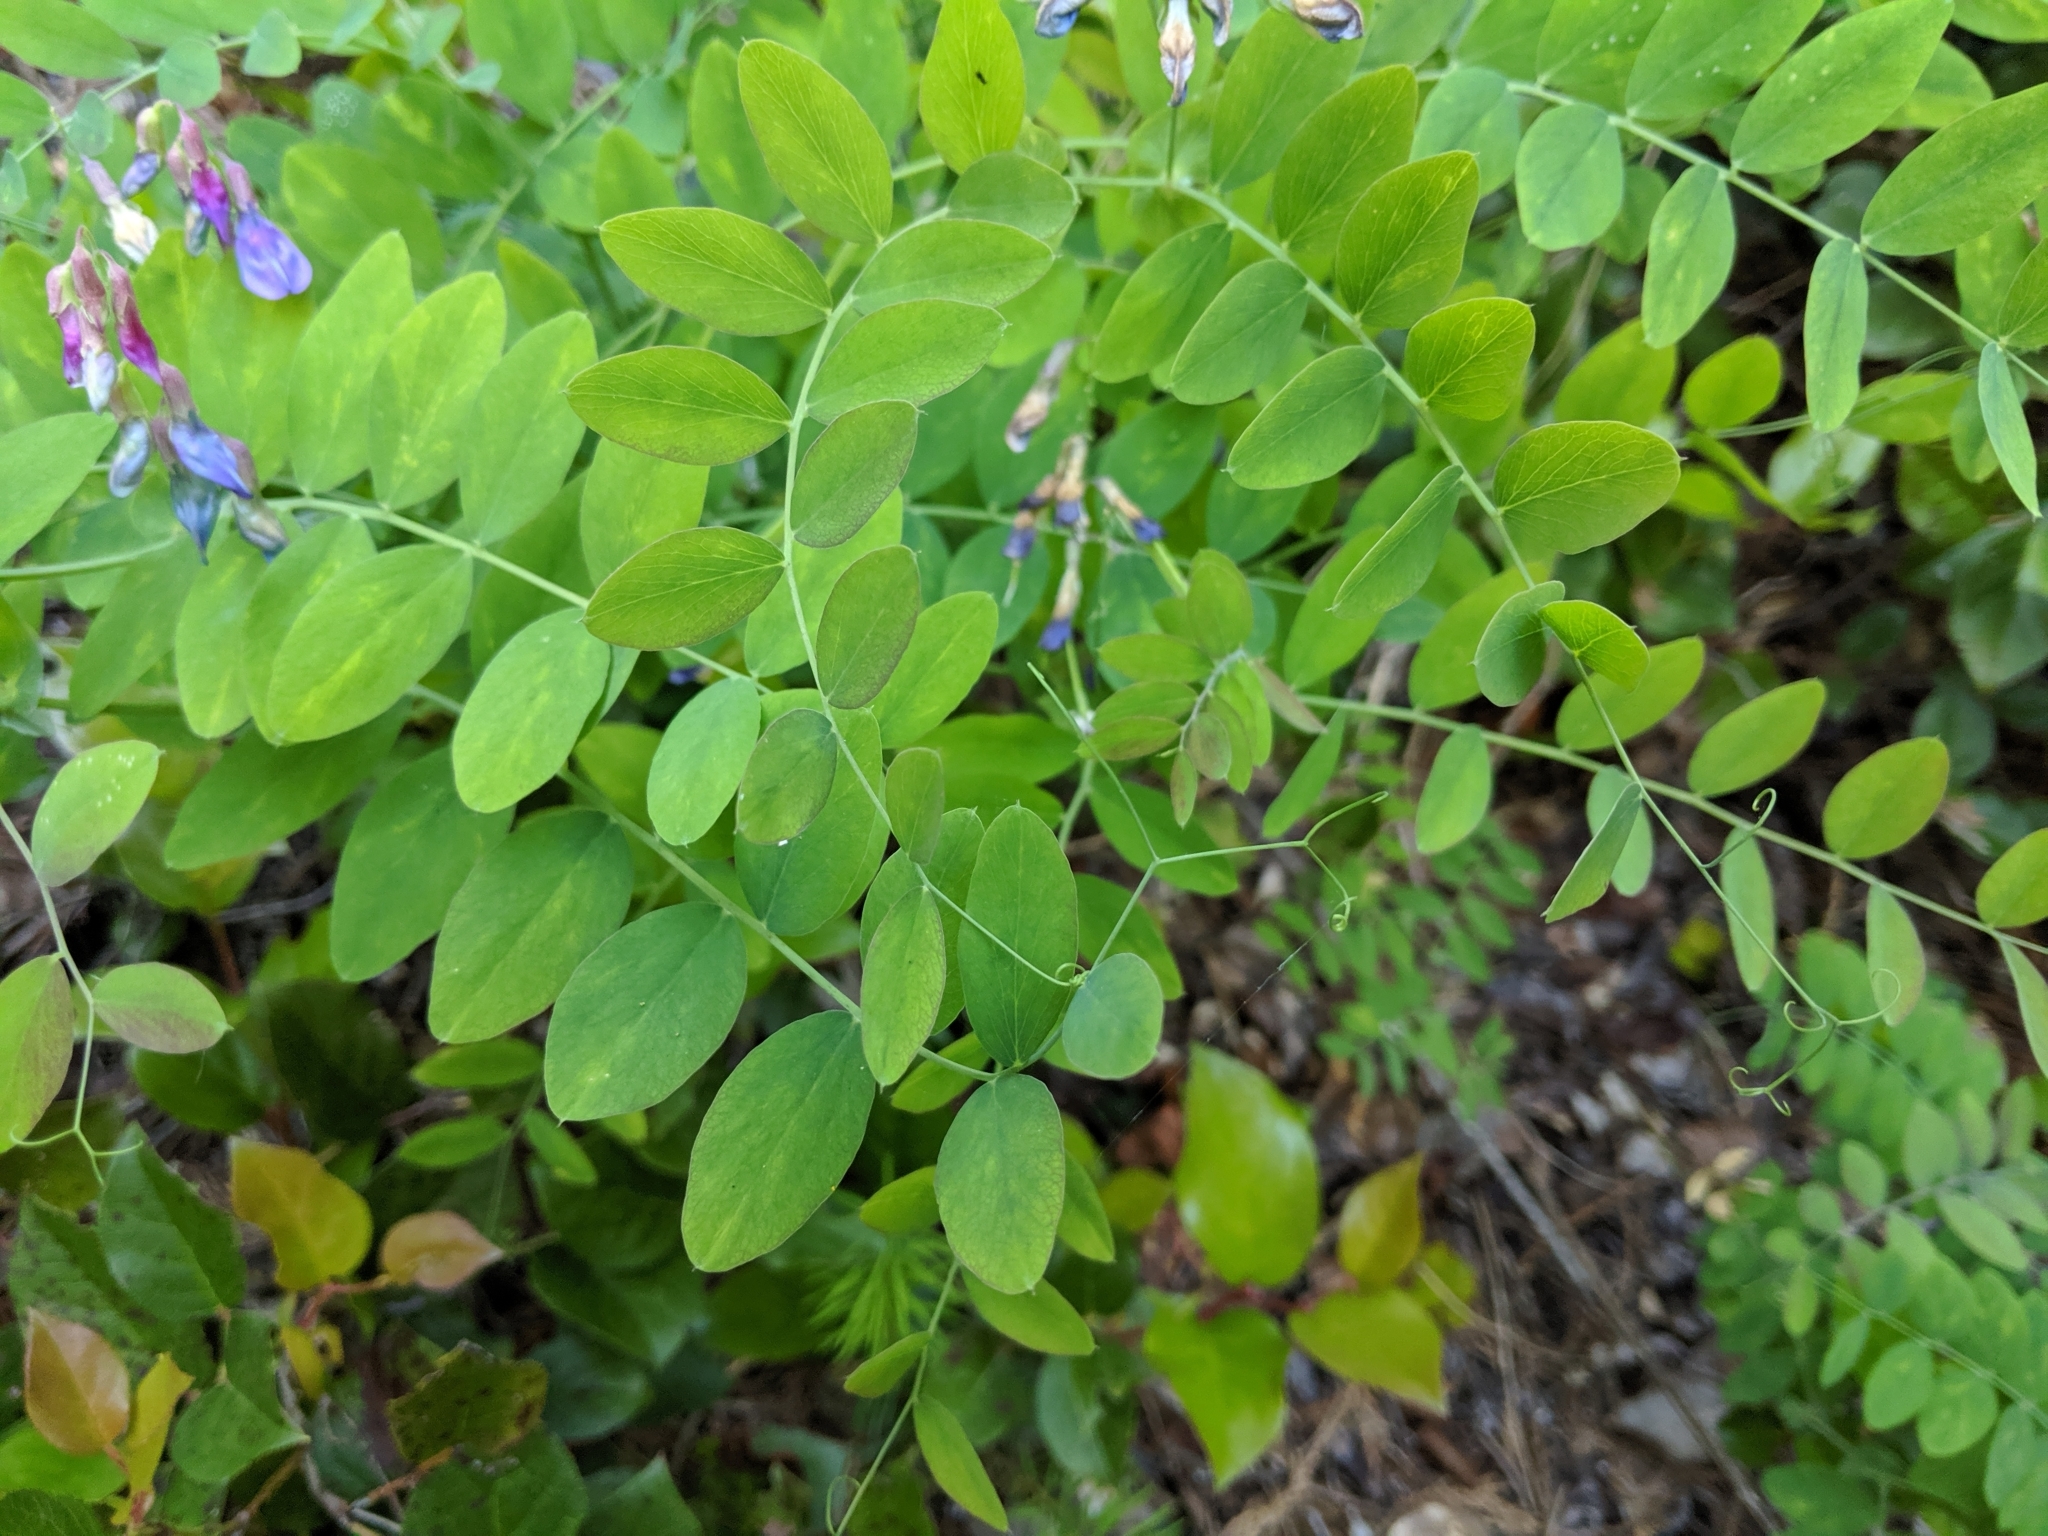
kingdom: Plantae
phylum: Tracheophyta
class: Magnoliopsida
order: Fabales
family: Fabaceae
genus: Lathyrus
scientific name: Lathyrus polyphyllus
